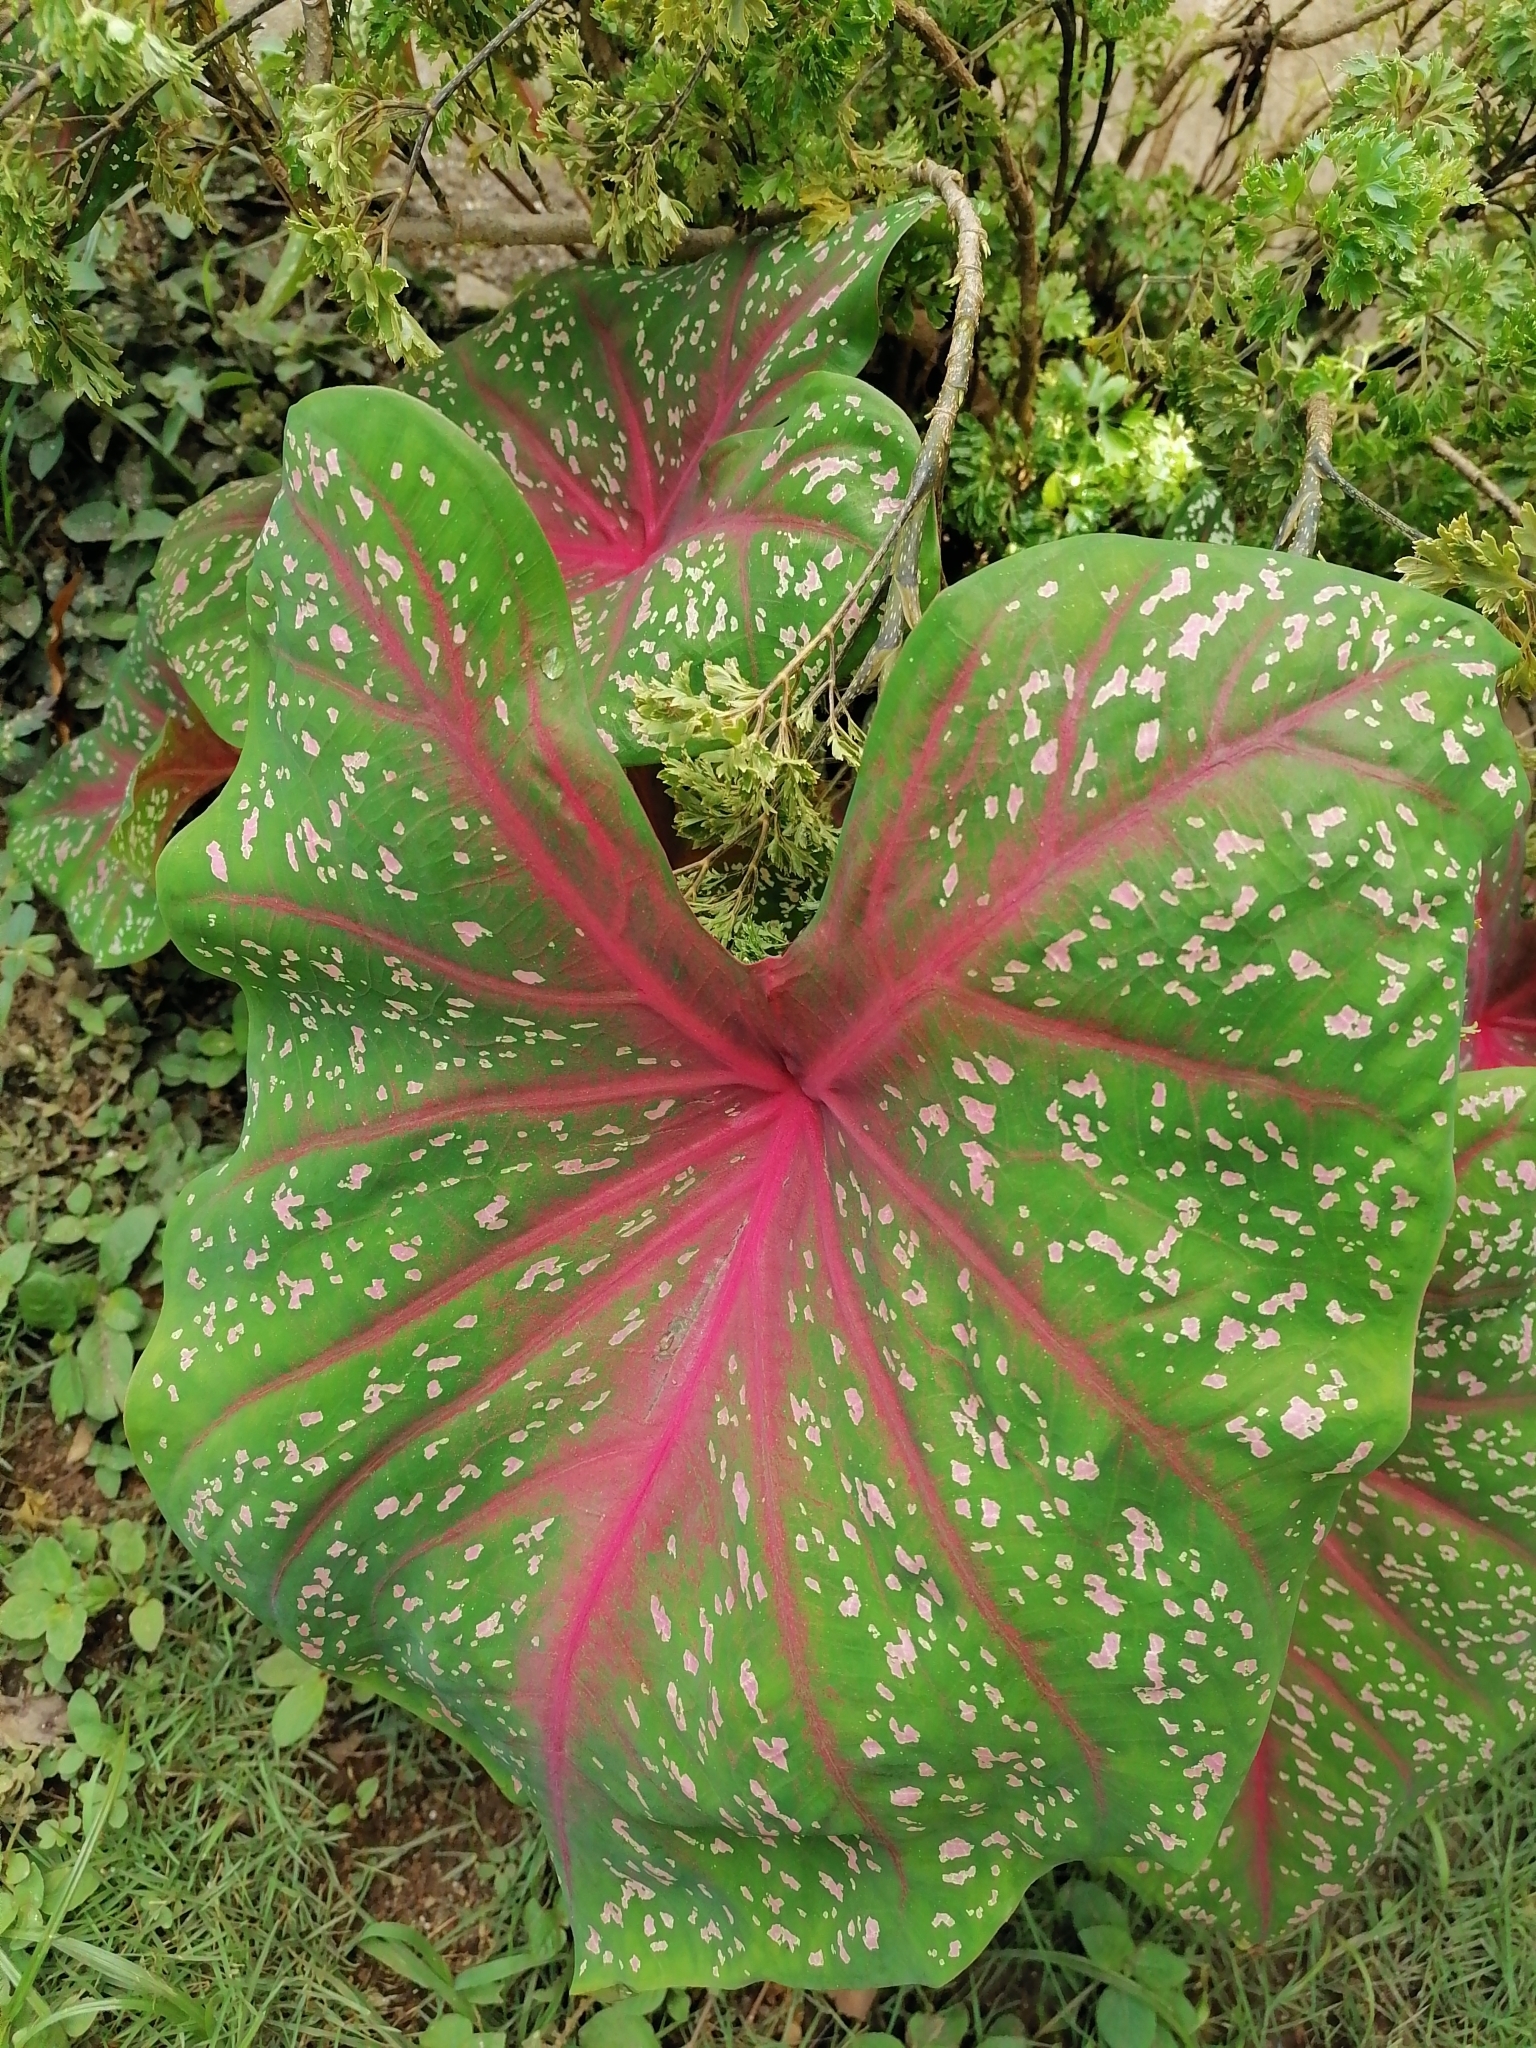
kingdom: Plantae
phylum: Tracheophyta
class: Liliopsida
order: Alismatales
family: Araceae
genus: Caladium
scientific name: Caladium bicolor
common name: Artist's pallet
